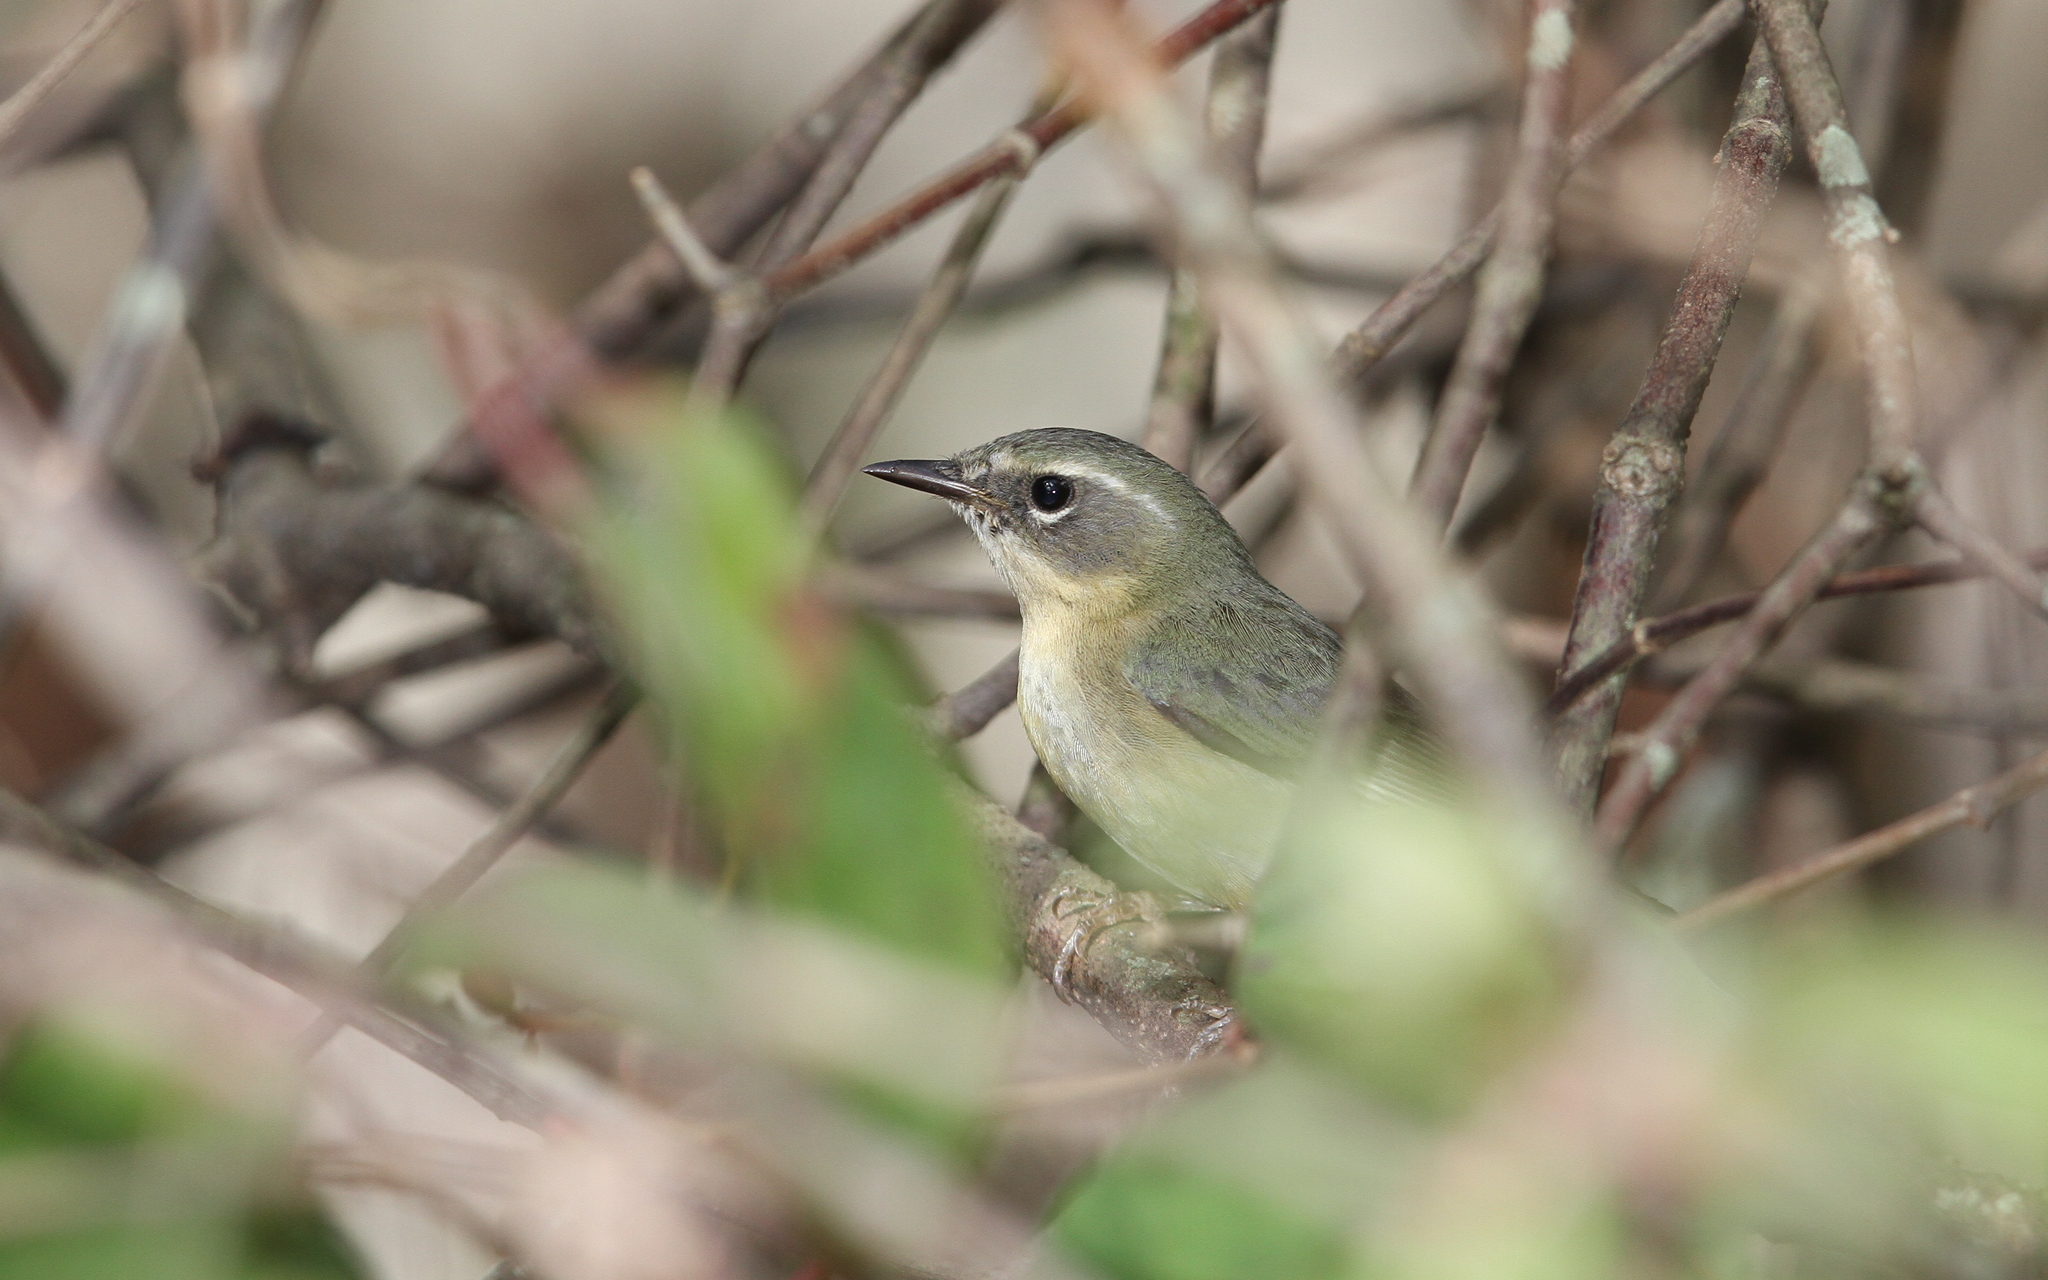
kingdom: Animalia
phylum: Chordata
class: Aves
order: Passeriformes
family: Parulidae
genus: Setophaga
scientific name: Setophaga caerulescens
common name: Black-throated blue warbler
